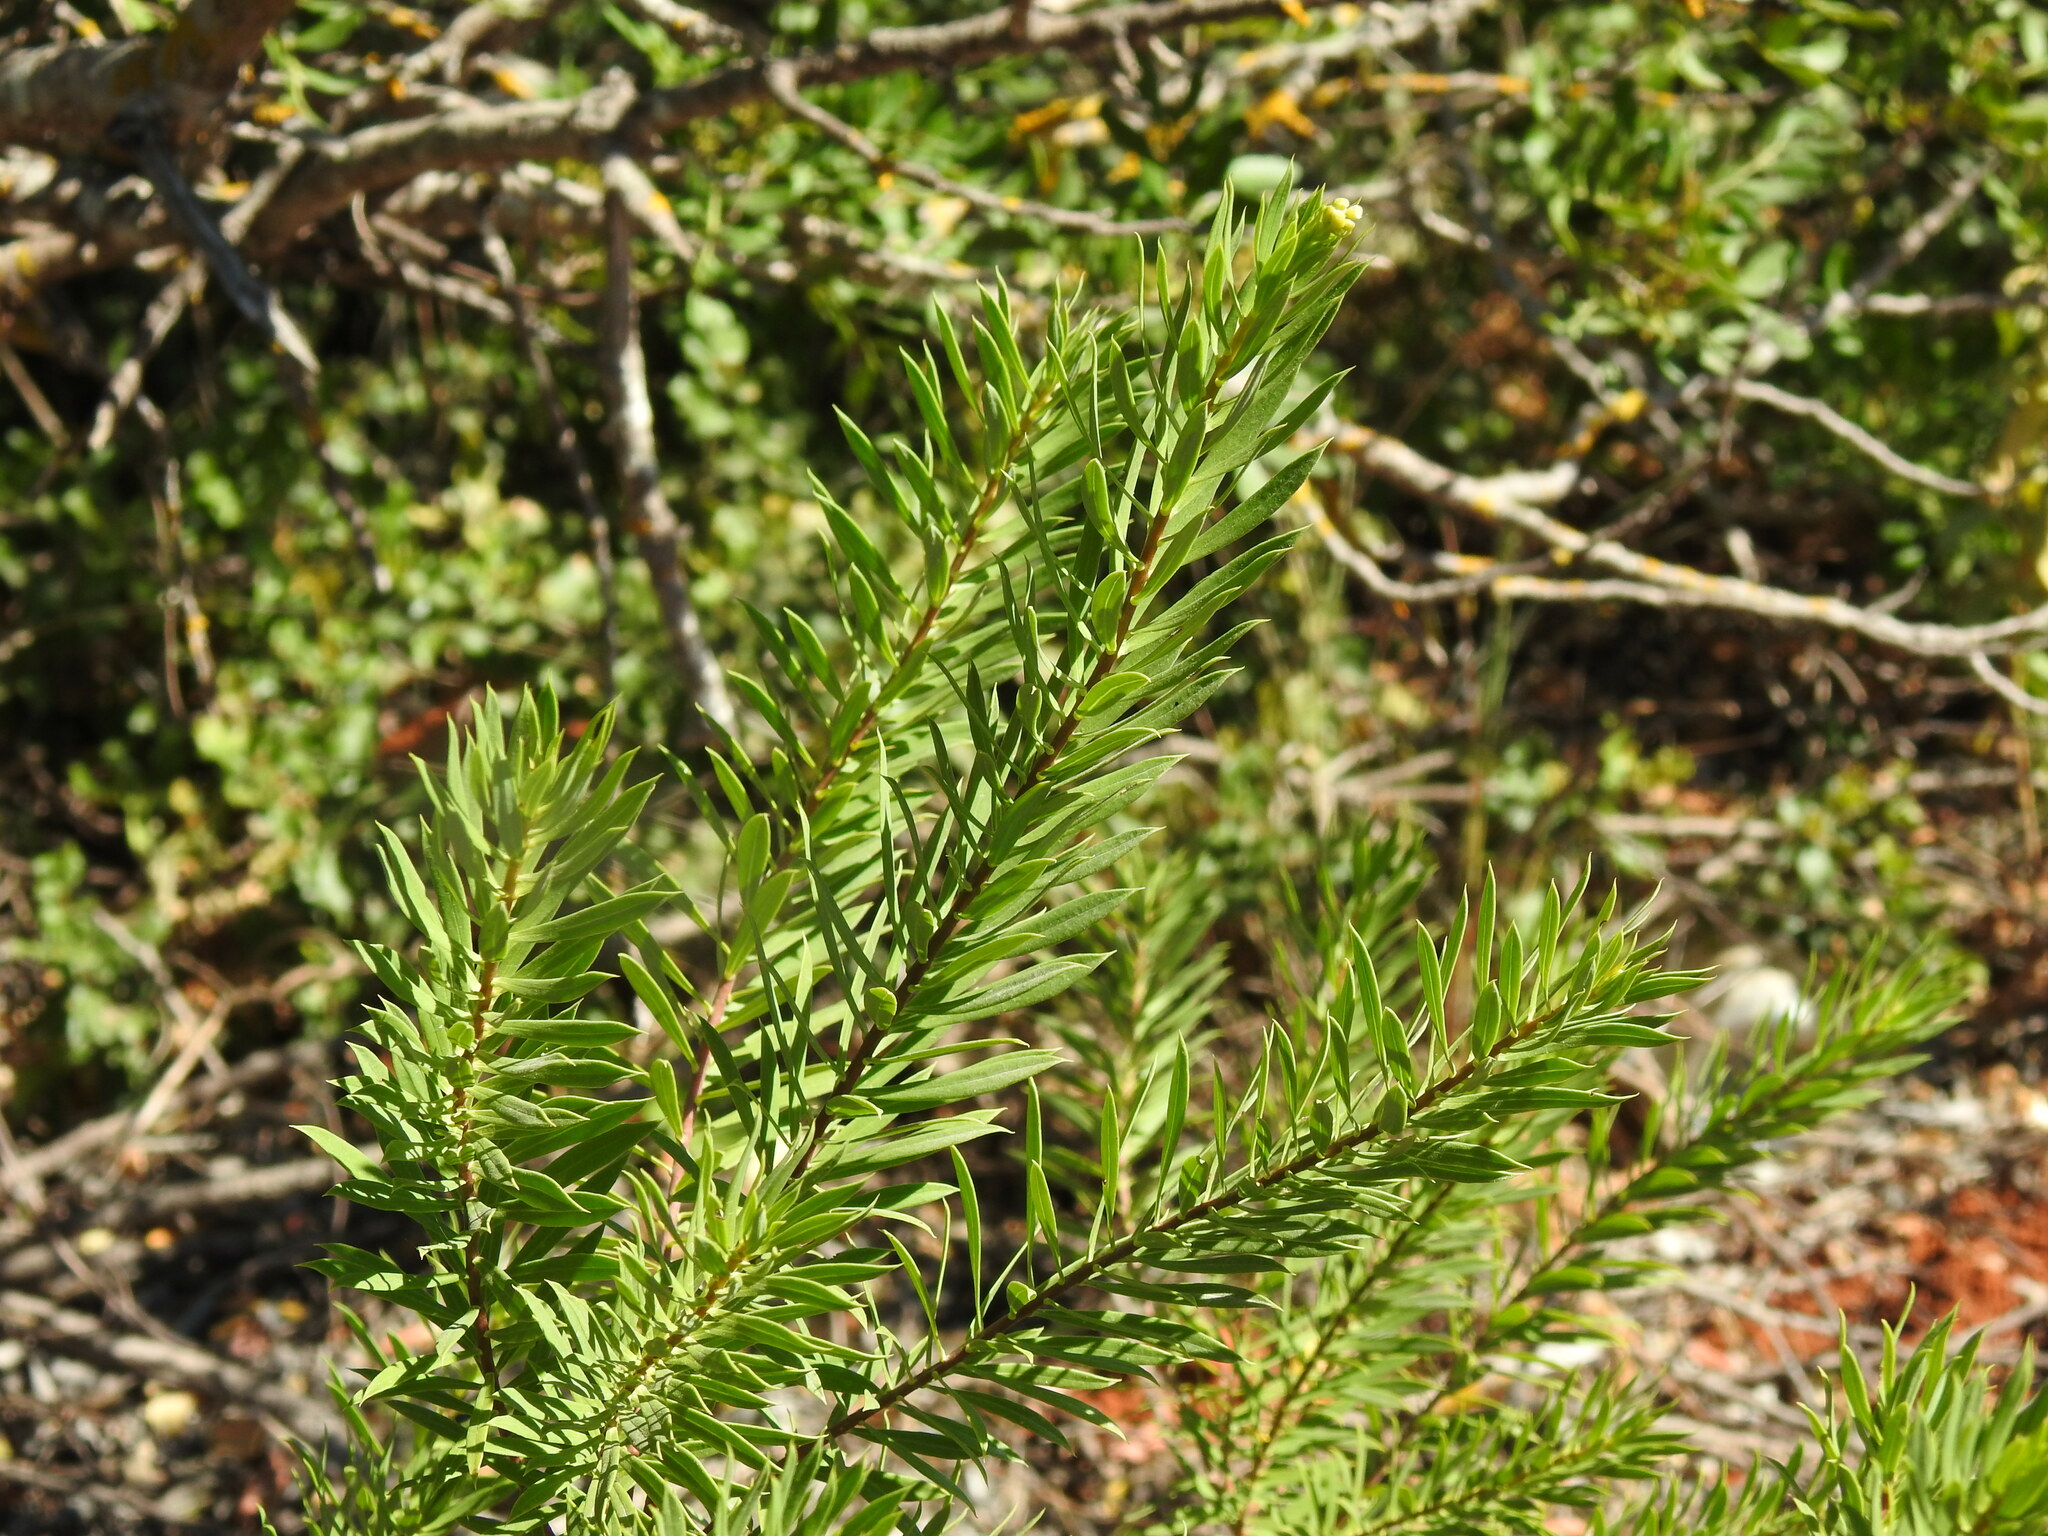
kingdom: Plantae
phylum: Tracheophyta
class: Magnoliopsida
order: Malvales
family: Thymelaeaceae
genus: Daphne
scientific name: Daphne gnidium
